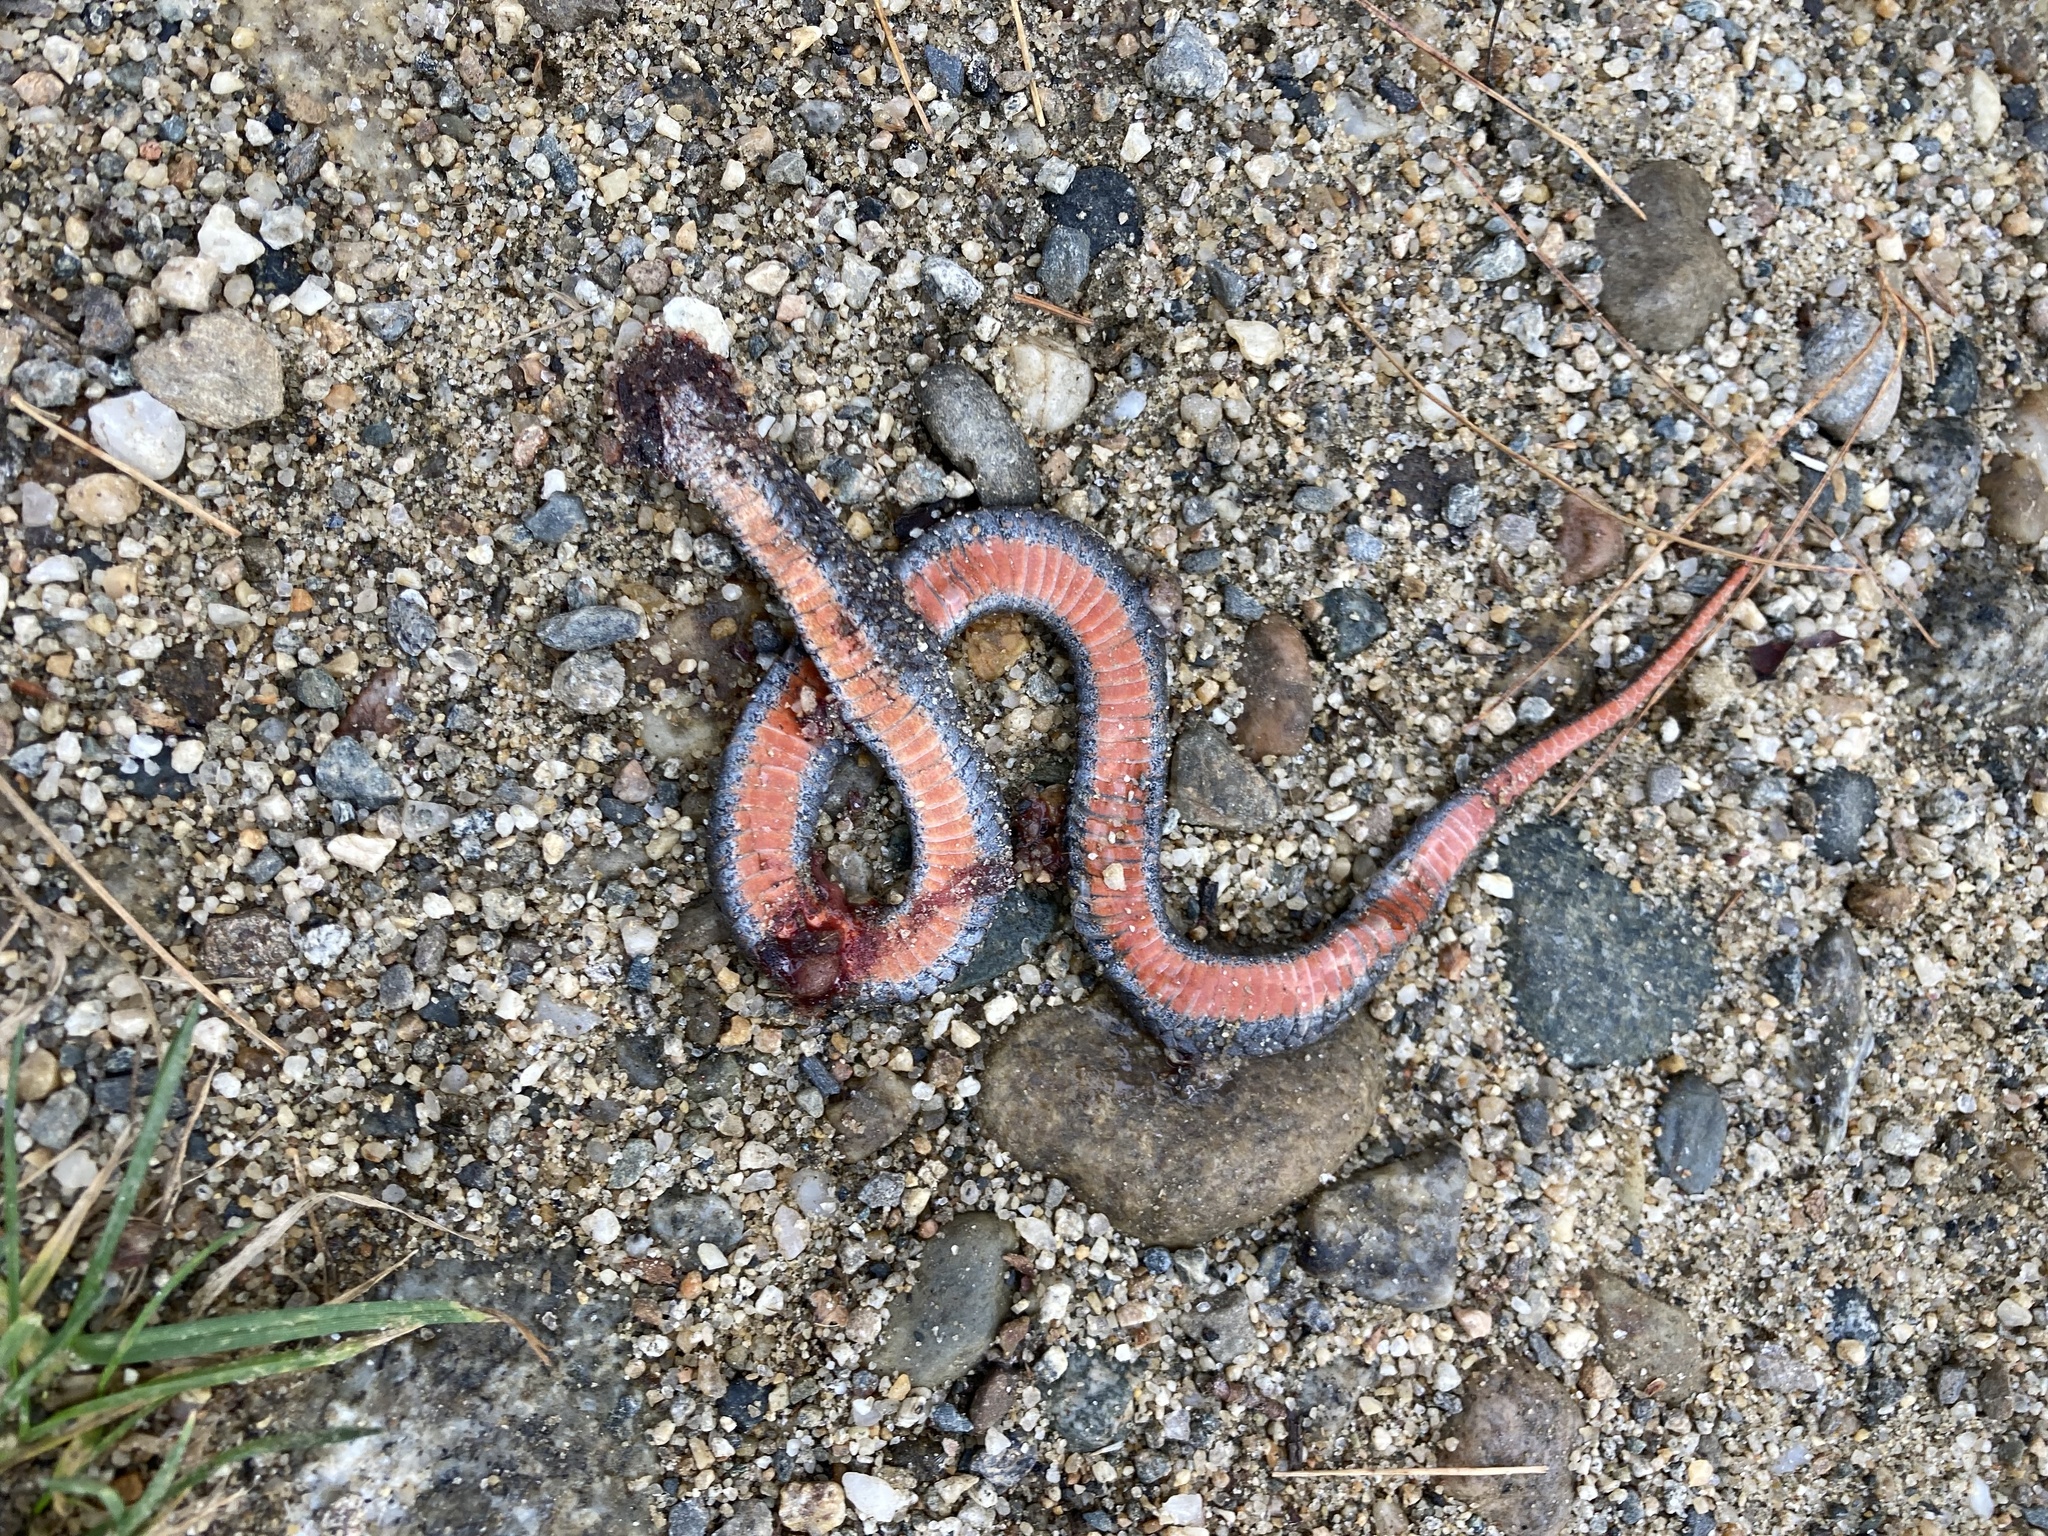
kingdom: Animalia
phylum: Chordata
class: Squamata
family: Colubridae
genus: Storeria
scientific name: Storeria occipitomaculata
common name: Redbelly snake
